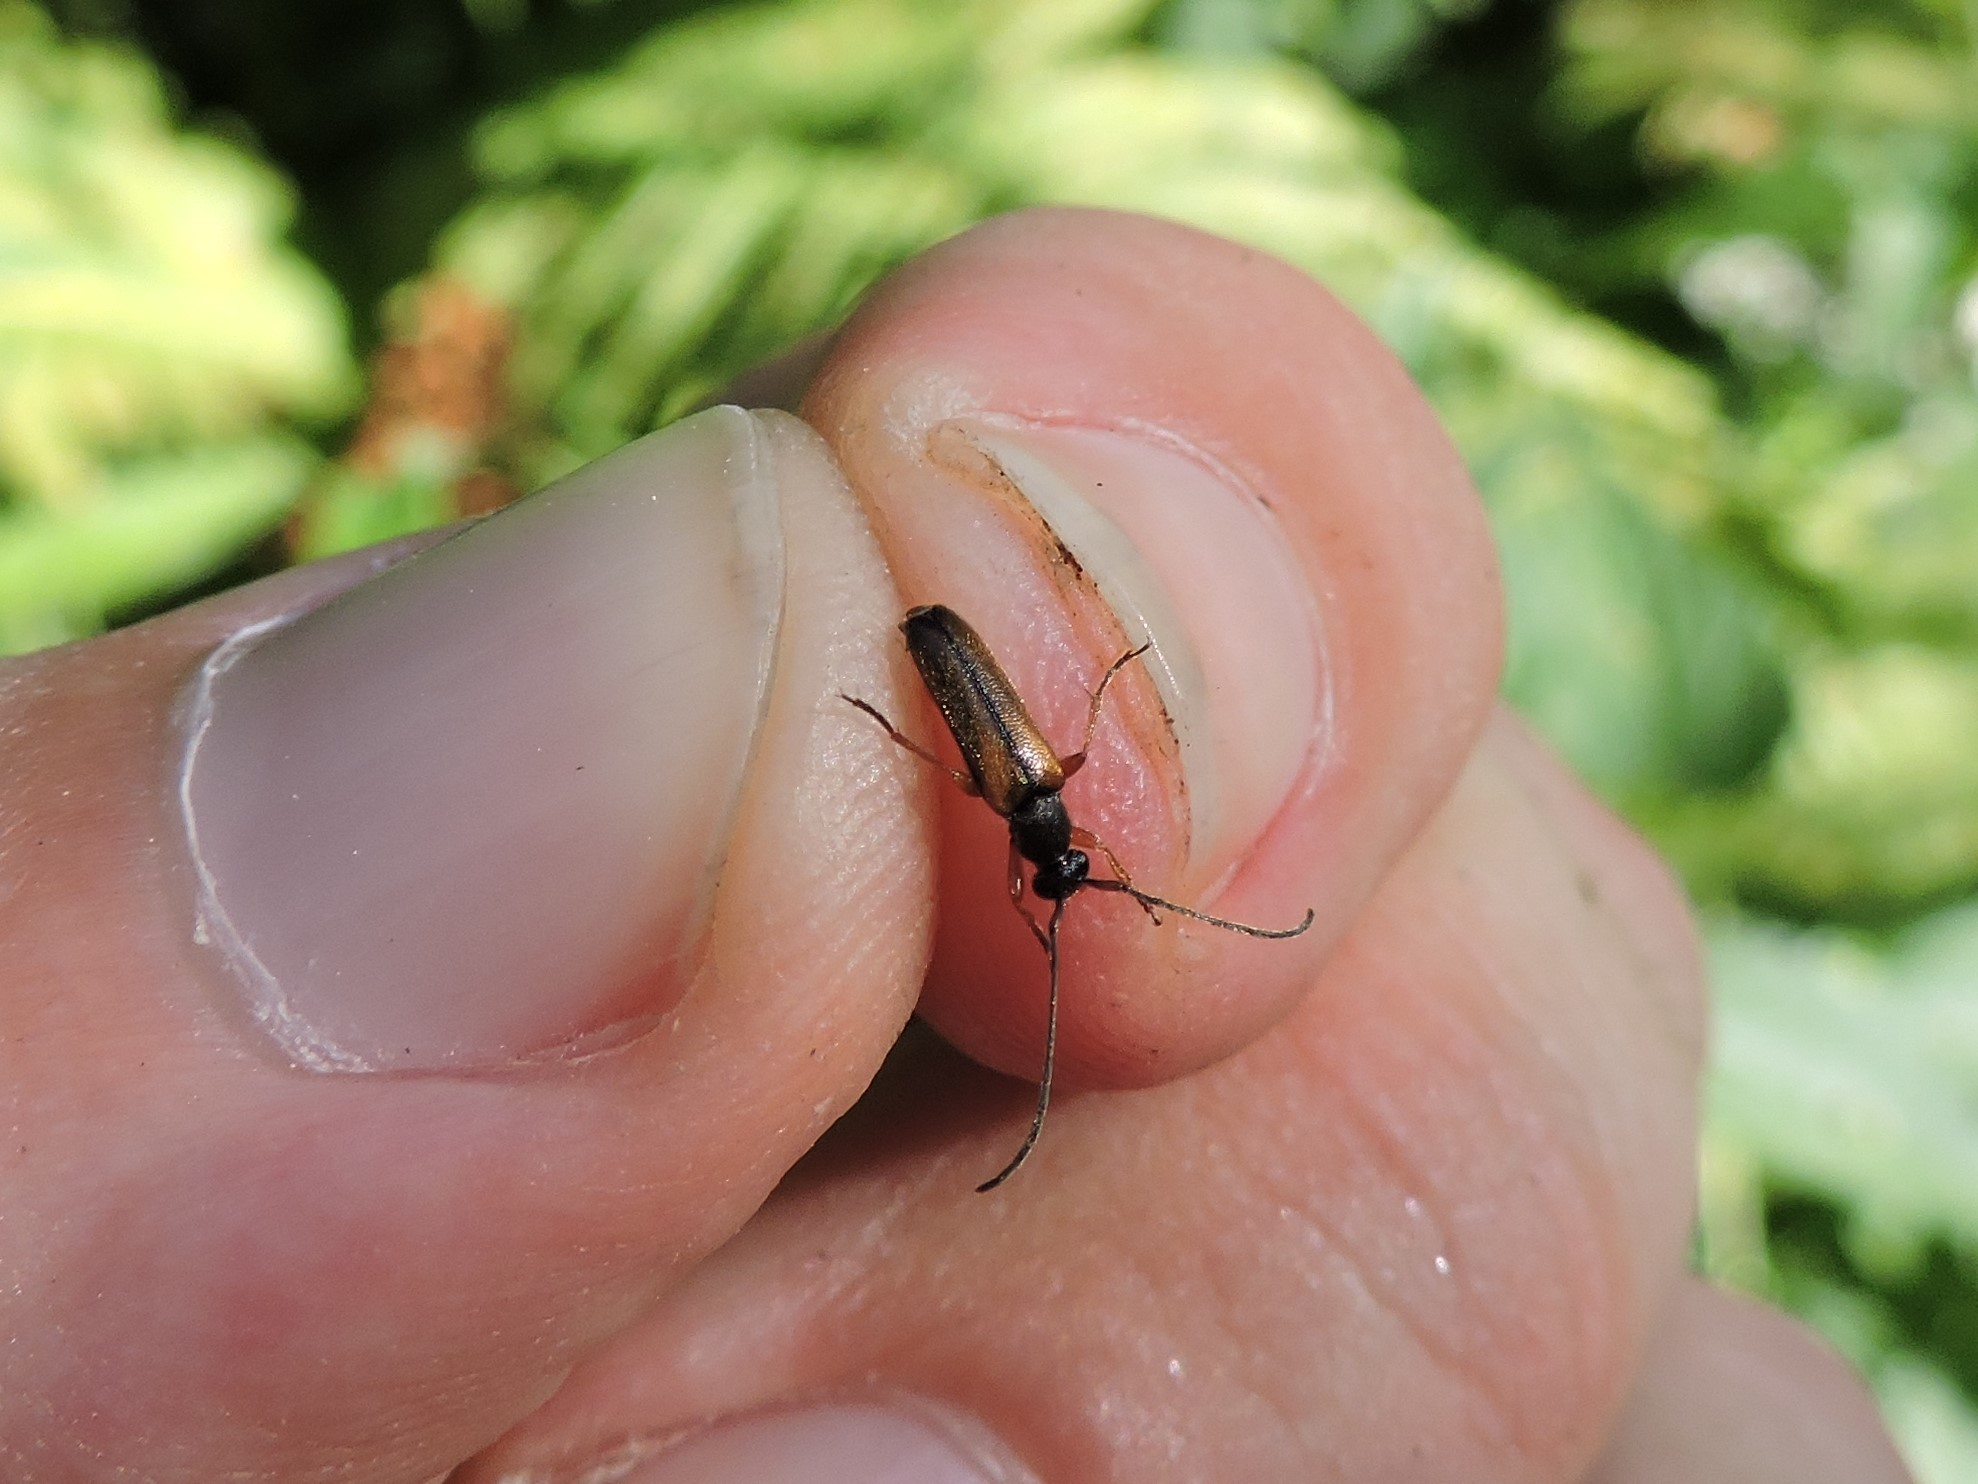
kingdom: Animalia
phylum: Arthropoda
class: Insecta
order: Coleoptera
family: Cerambycidae
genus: Alosterna
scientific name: Alosterna tabacicolor
